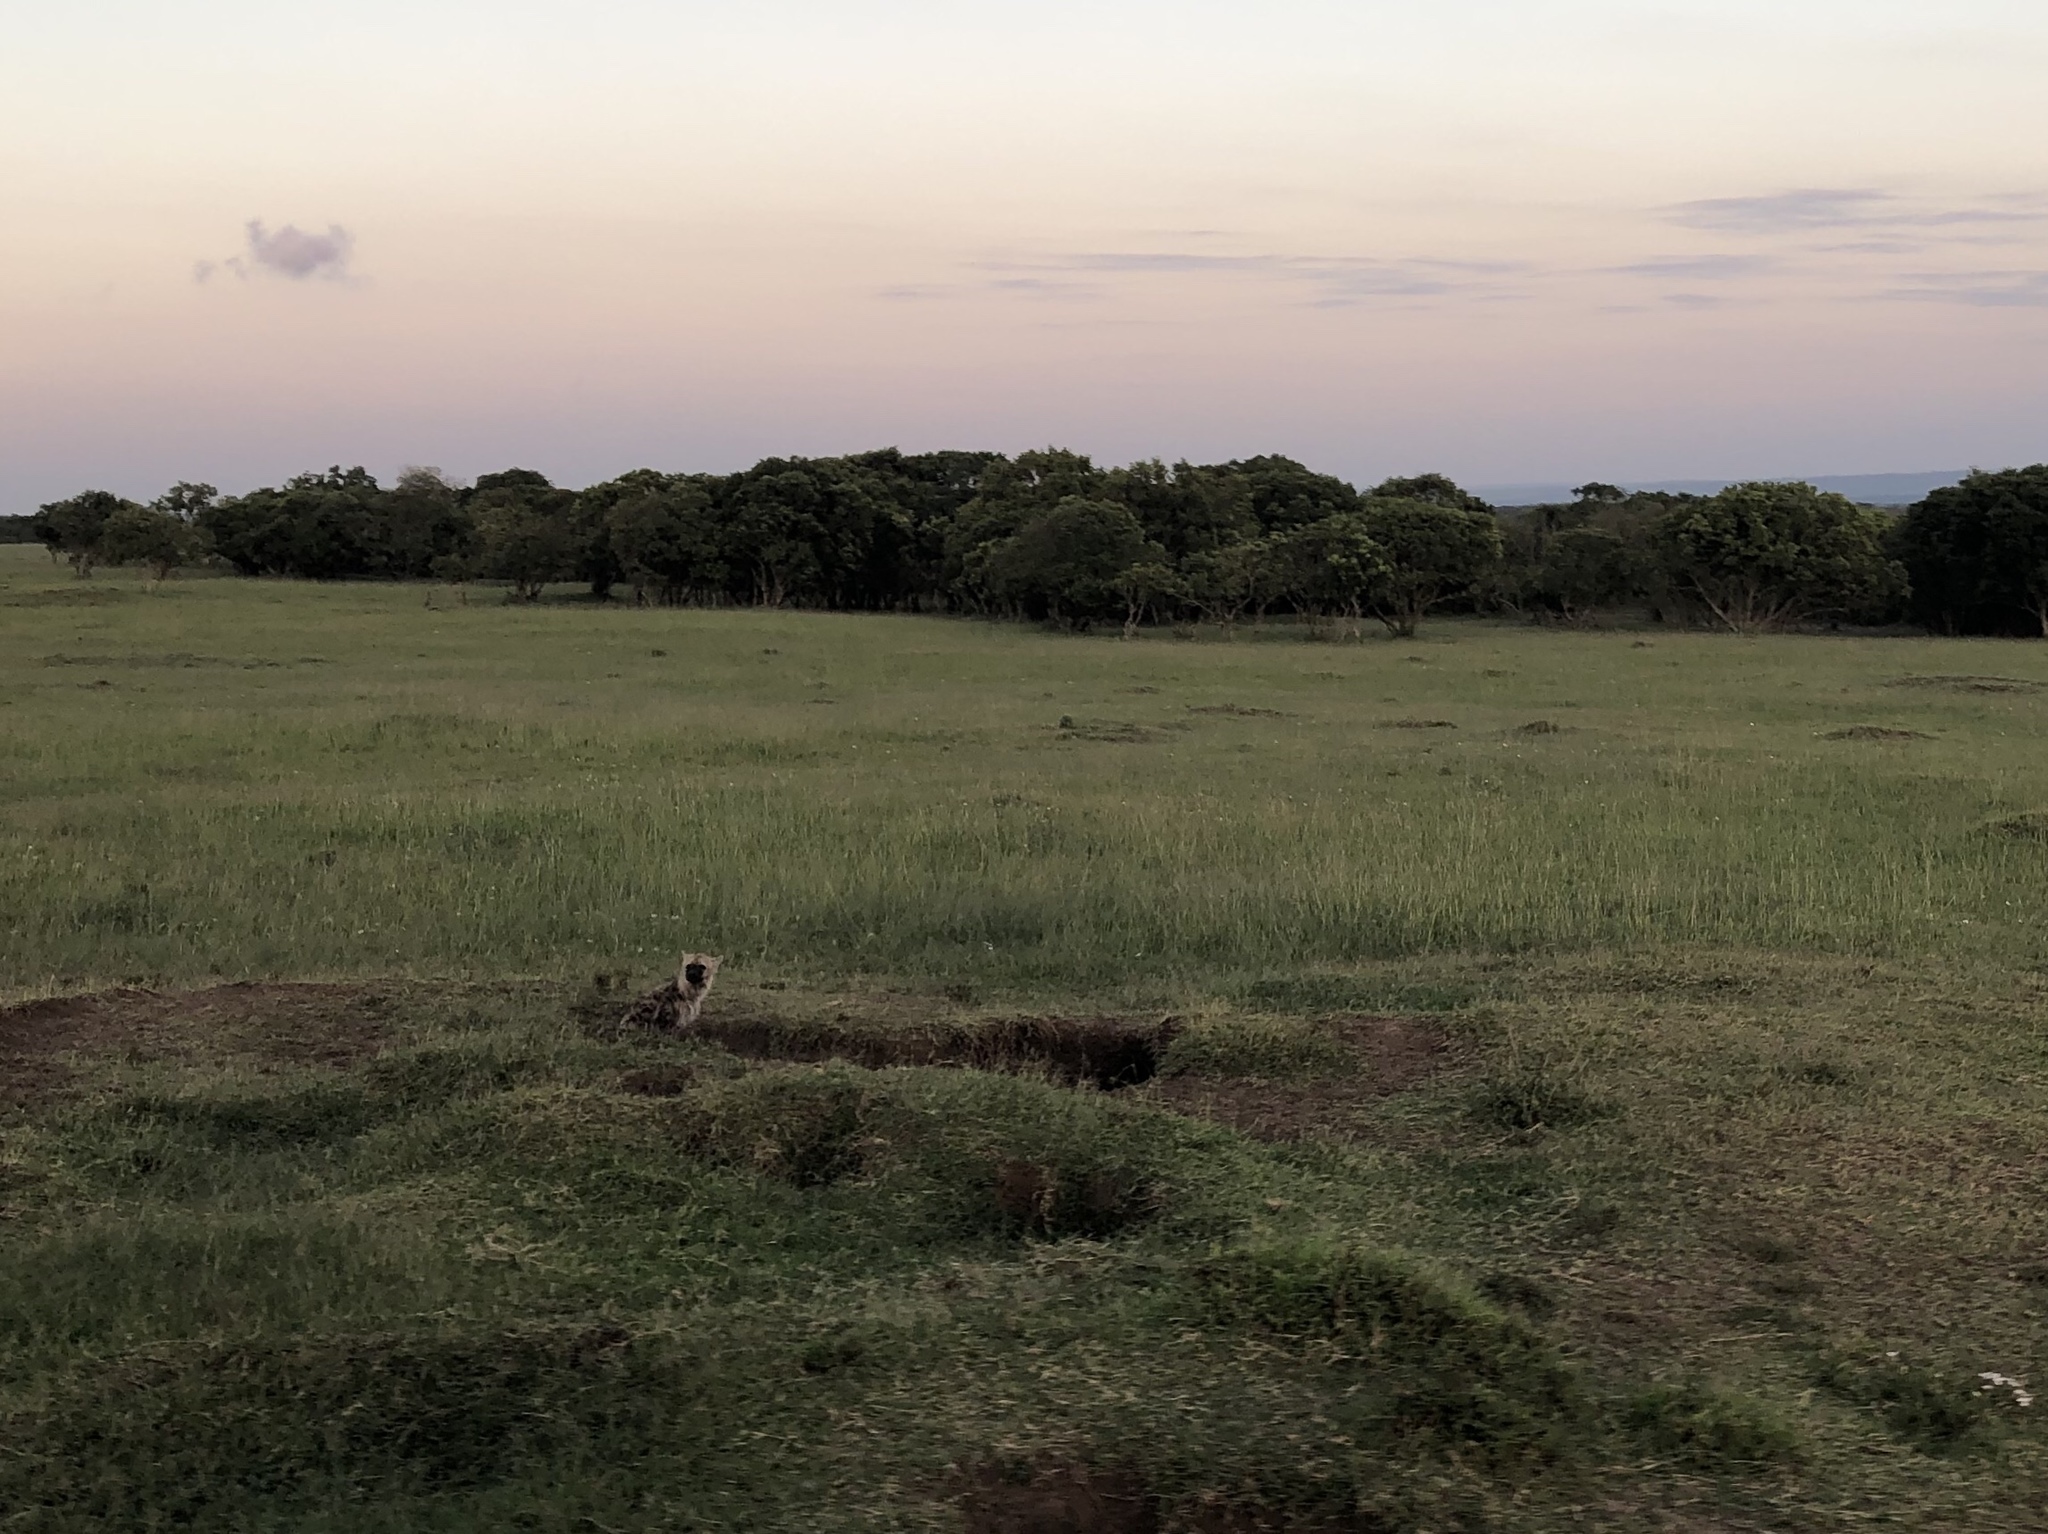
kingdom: Animalia
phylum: Chordata
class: Mammalia
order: Carnivora
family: Hyaenidae
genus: Crocuta
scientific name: Crocuta crocuta
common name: Spotted hyaena
